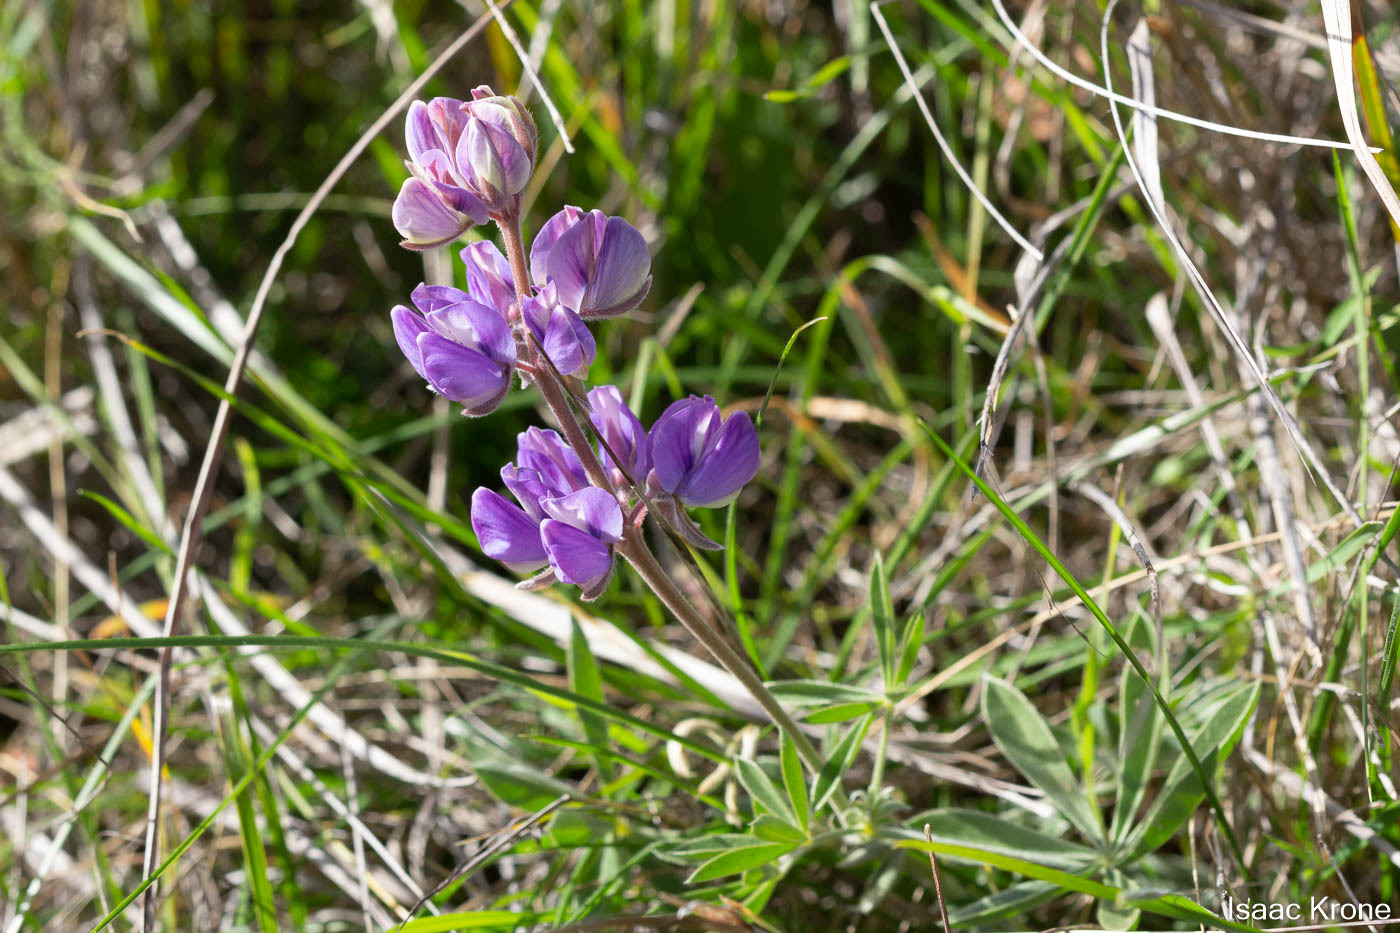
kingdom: Plantae
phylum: Tracheophyta
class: Magnoliopsida
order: Fabales
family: Fabaceae
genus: Lupinus
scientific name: Lupinus formosus
